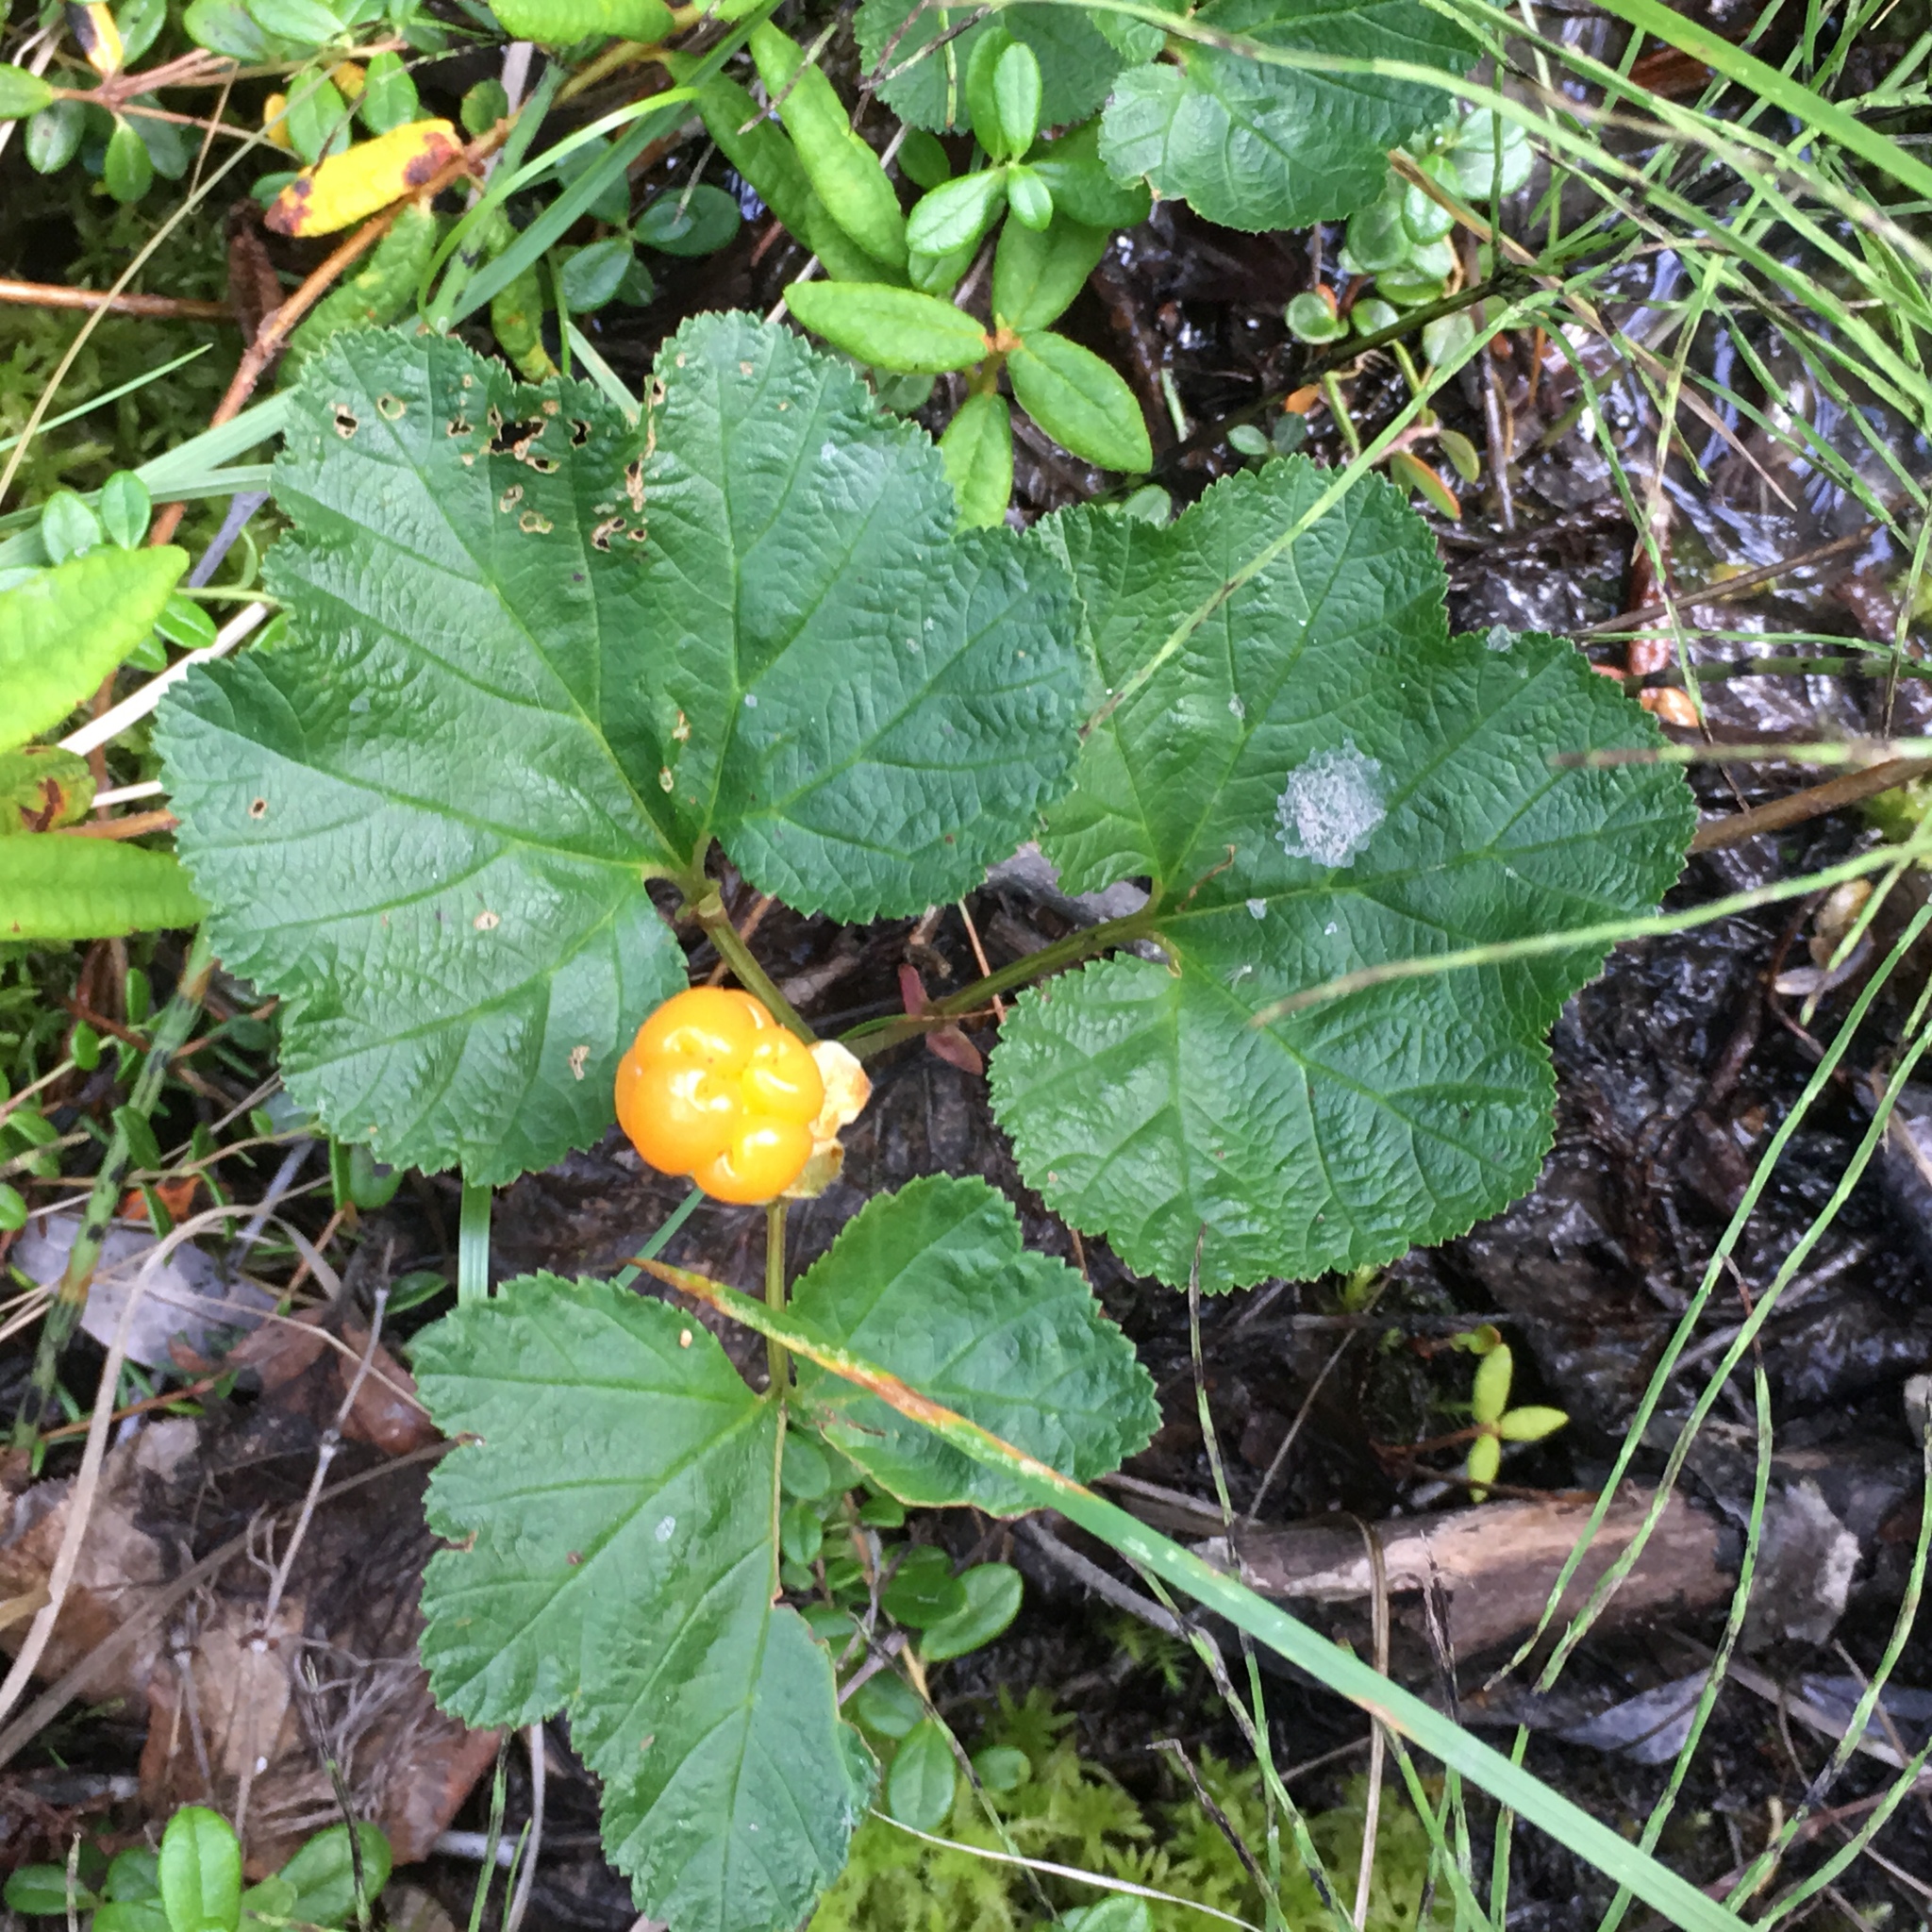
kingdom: Plantae
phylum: Tracheophyta
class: Magnoliopsida
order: Rosales
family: Rosaceae
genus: Rubus
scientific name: Rubus chamaemorus
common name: Cloudberry
